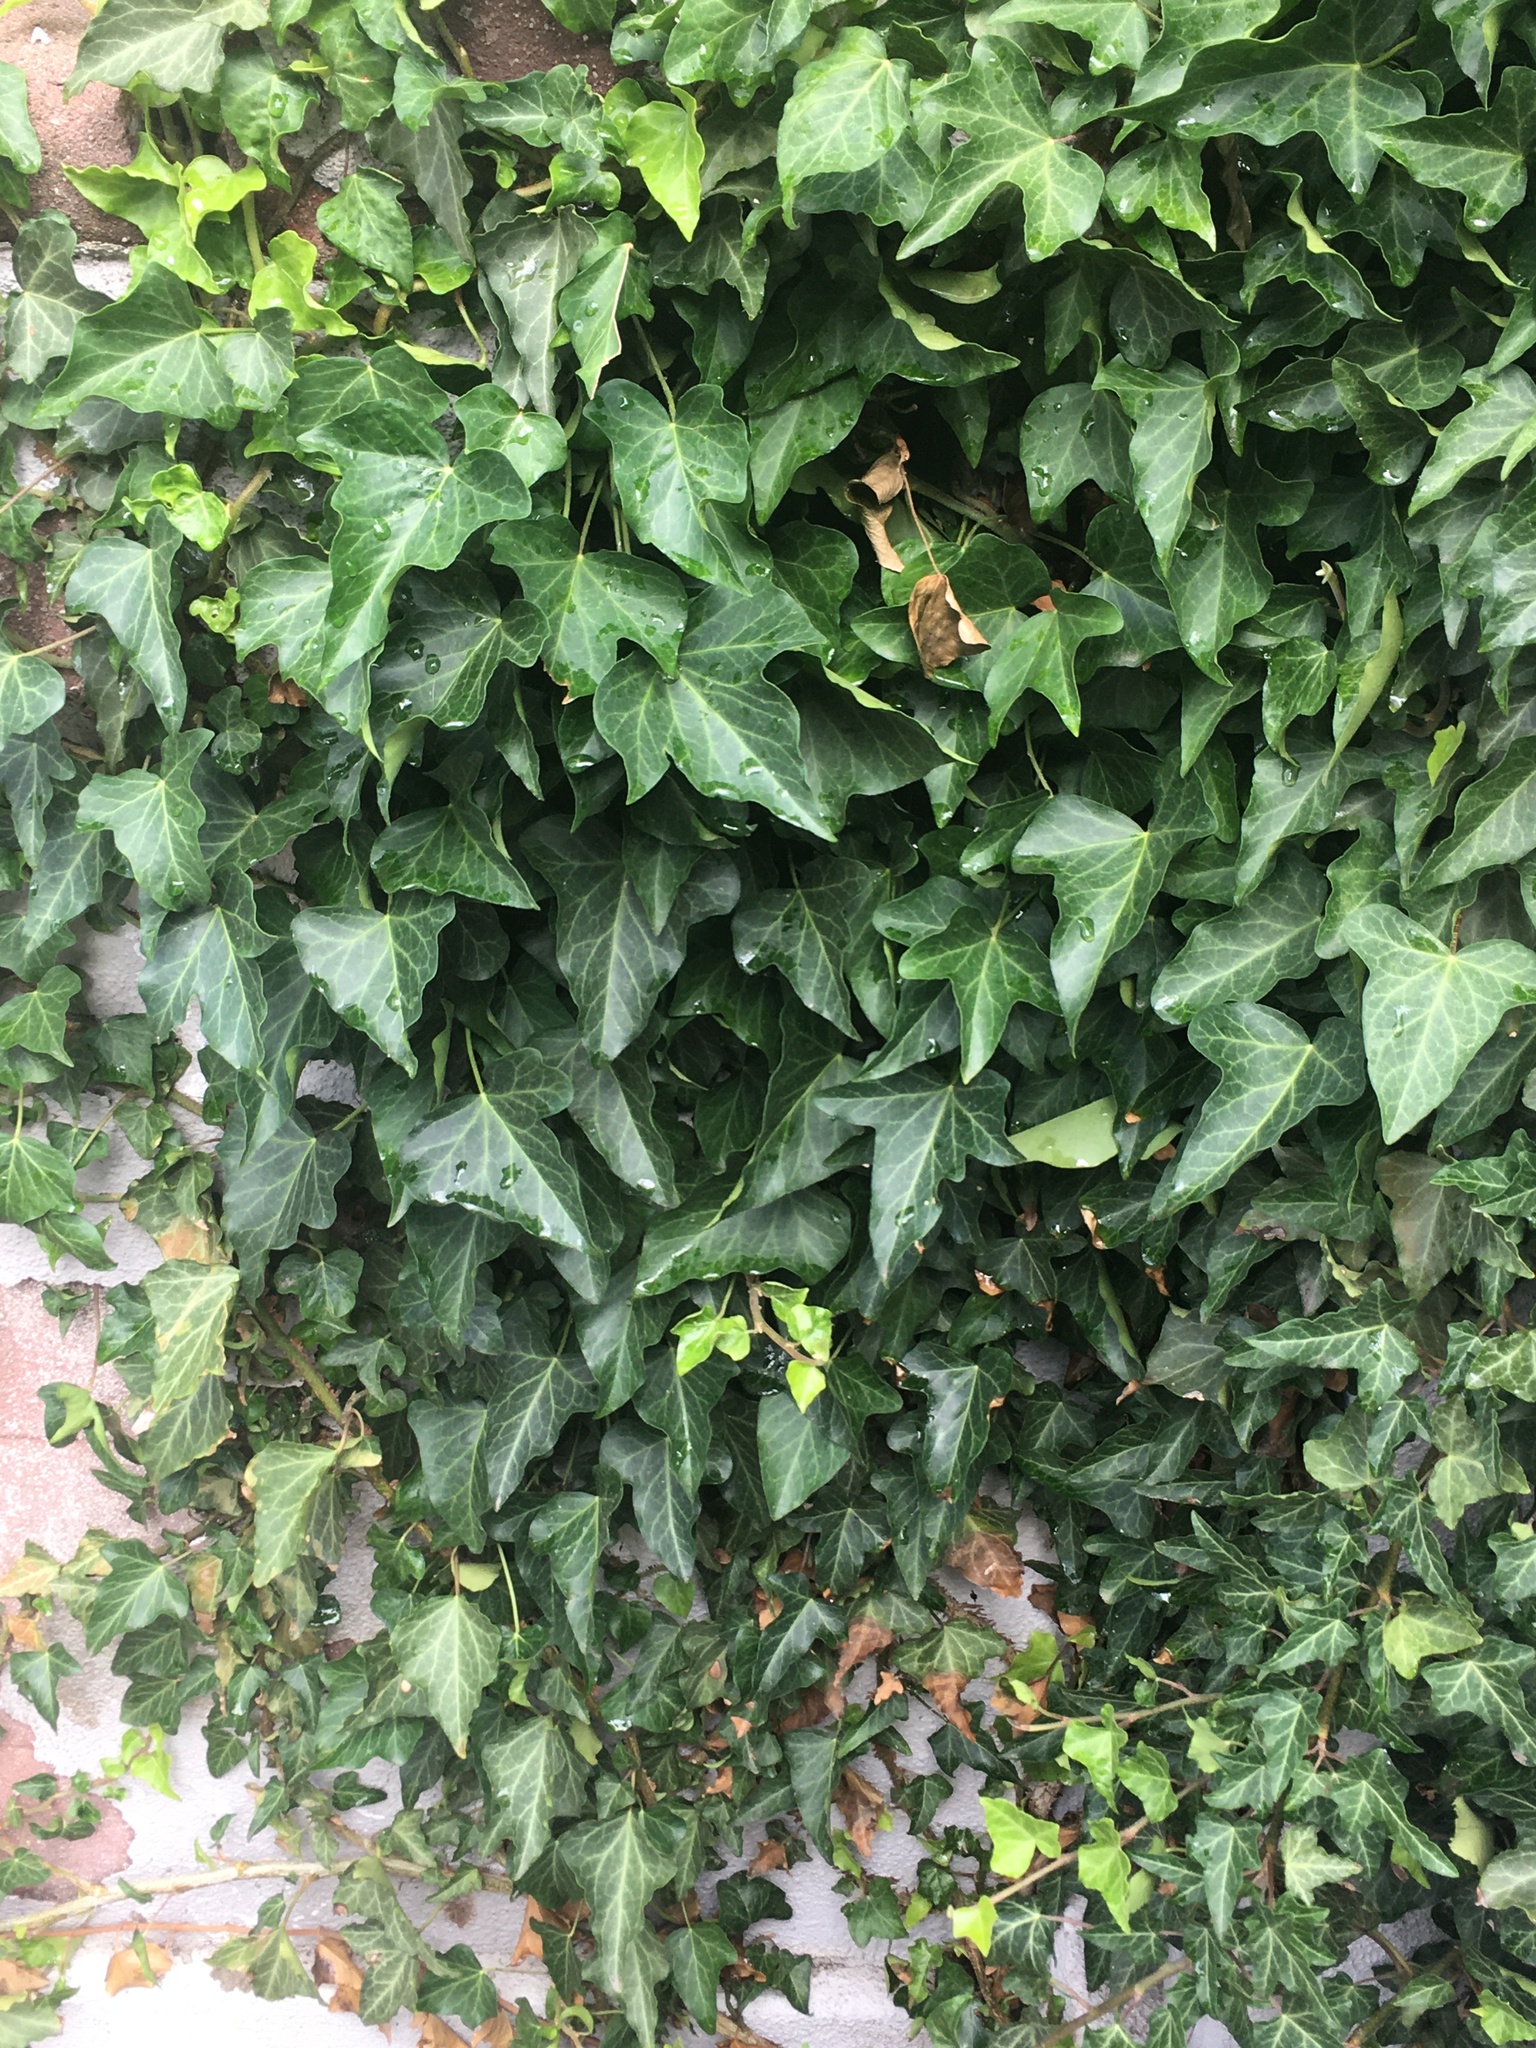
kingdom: Plantae
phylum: Tracheophyta
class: Magnoliopsida
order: Apiales
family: Araliaceae
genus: Hedera
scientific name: Hedera helix
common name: Ivy
